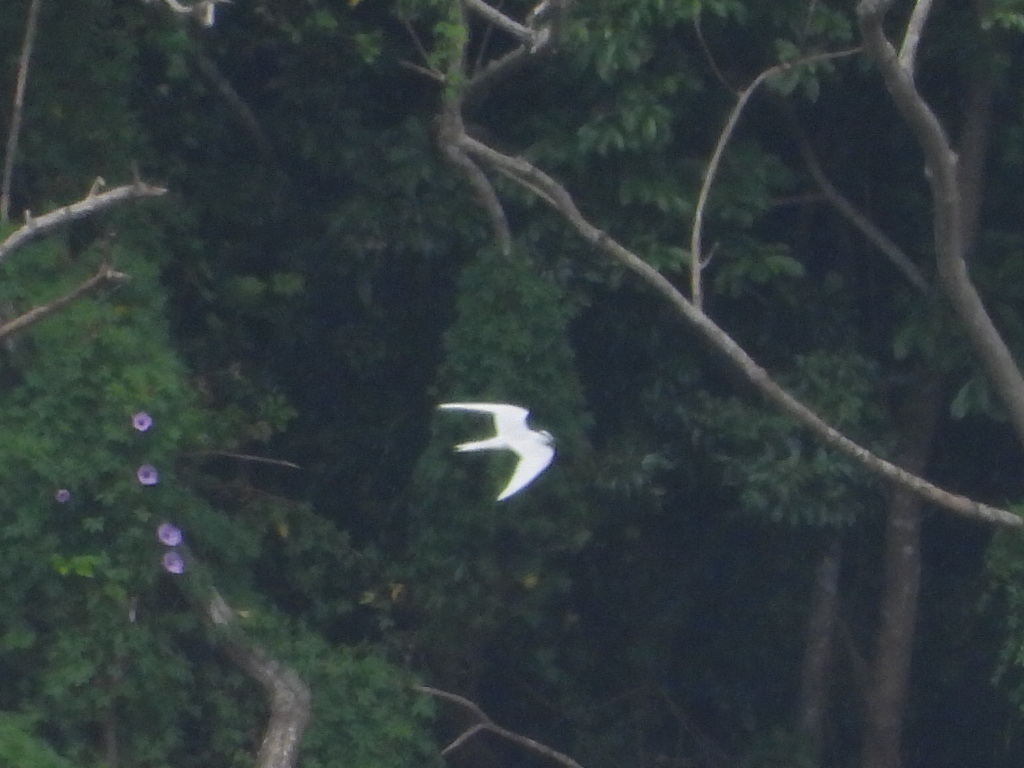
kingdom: Animalia
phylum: Chordata
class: Aves
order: Charadriiformes
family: Laridae
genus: Sterna
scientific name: Sterna sumatrana
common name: Black-naped tern
